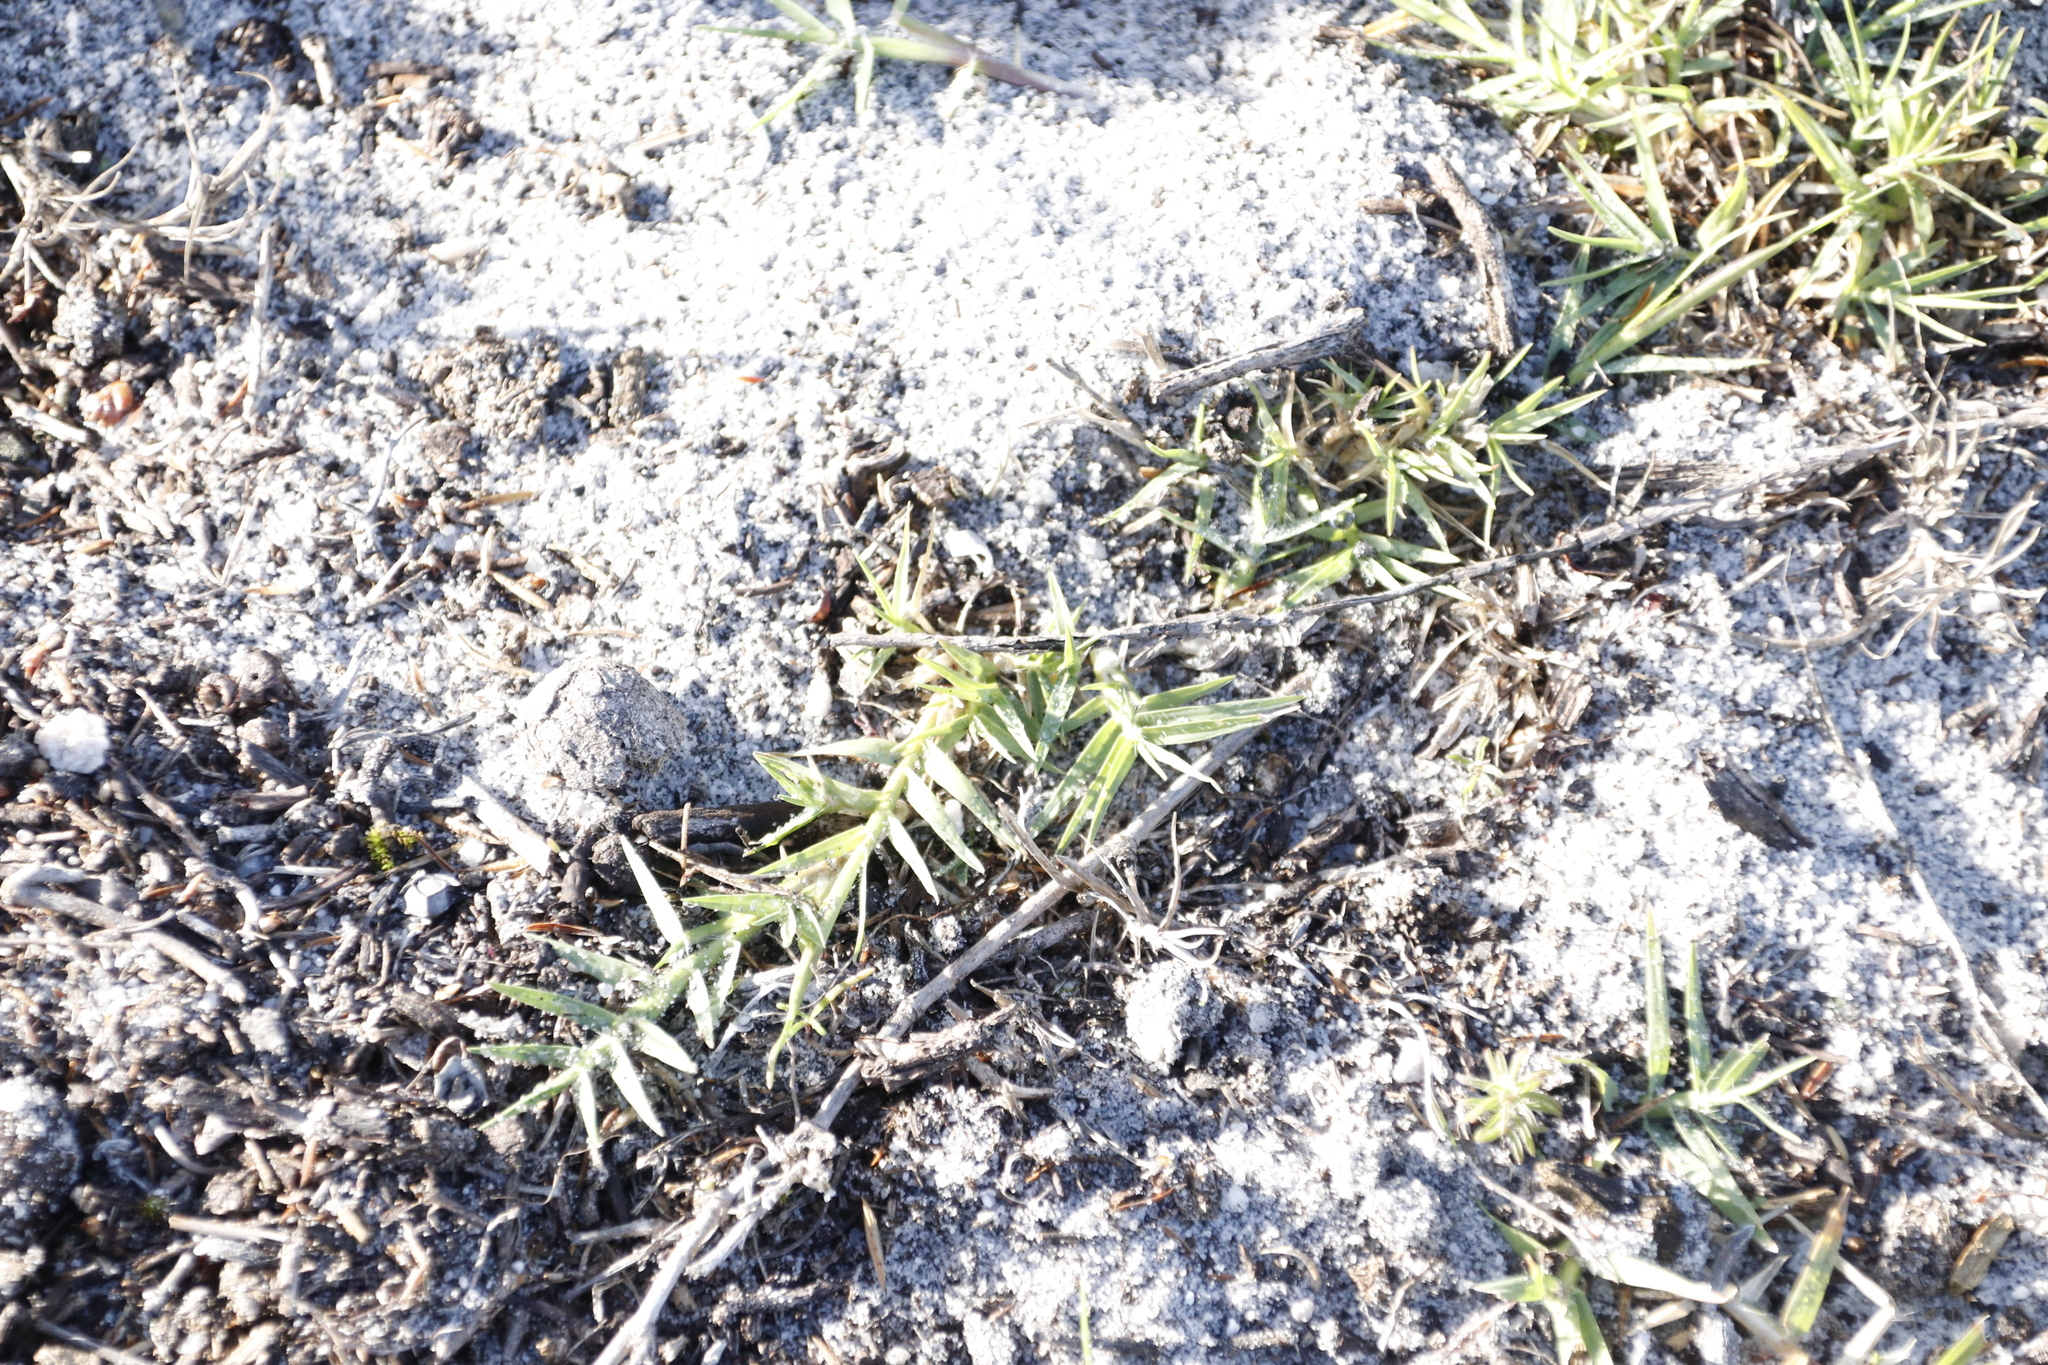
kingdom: Plantae
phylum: Tracheophyta
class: Liliopsida
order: Poales
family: Poaceae
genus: Cynodon
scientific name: Cynodon dactylon
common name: Bermuda grass
